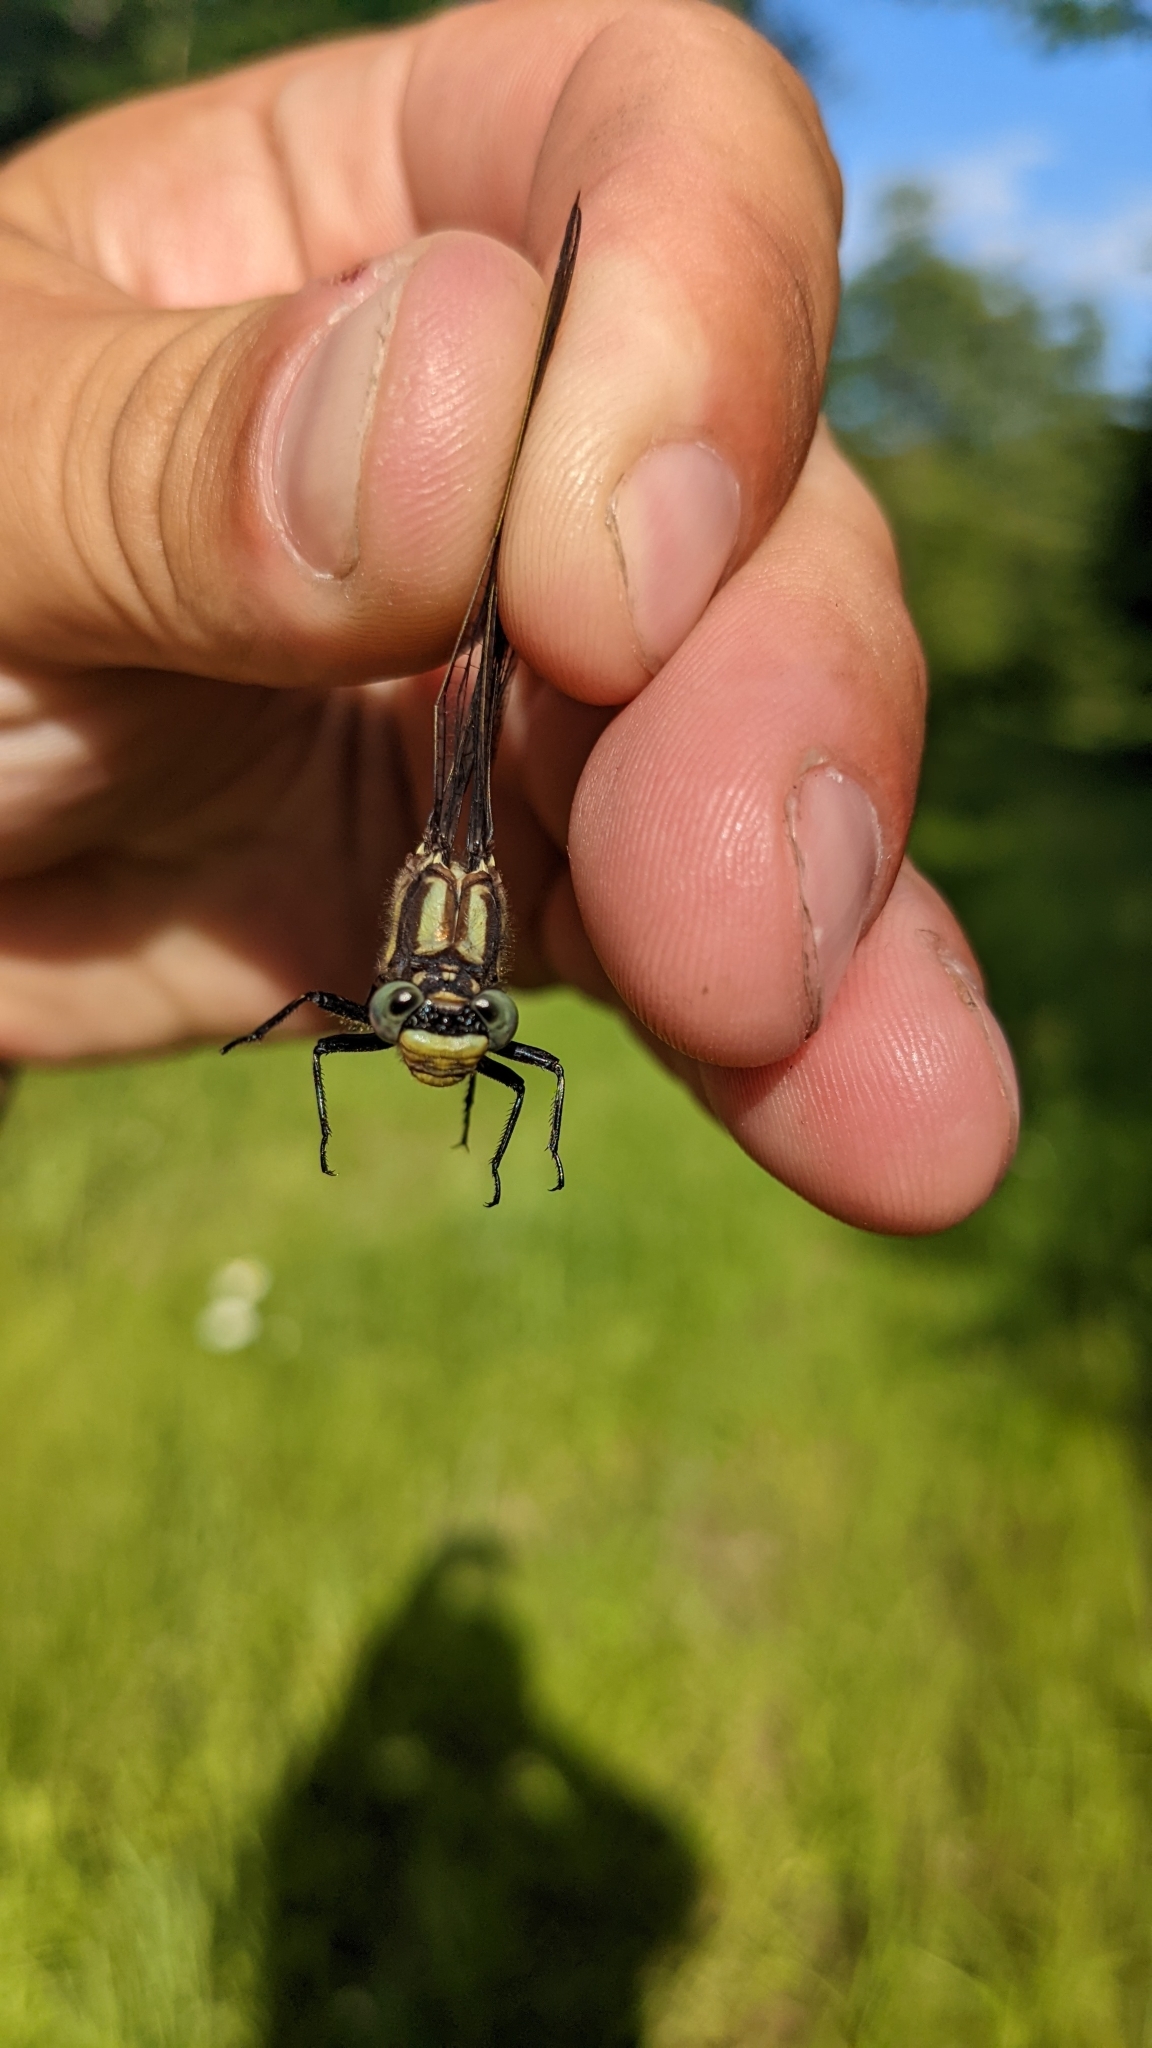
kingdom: Animalia
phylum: Arthropoda
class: Insecta
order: Odonata
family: Gomphidae
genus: Phanogomphus
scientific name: Phanogomphus descriptus
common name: Harpoon clubtail
